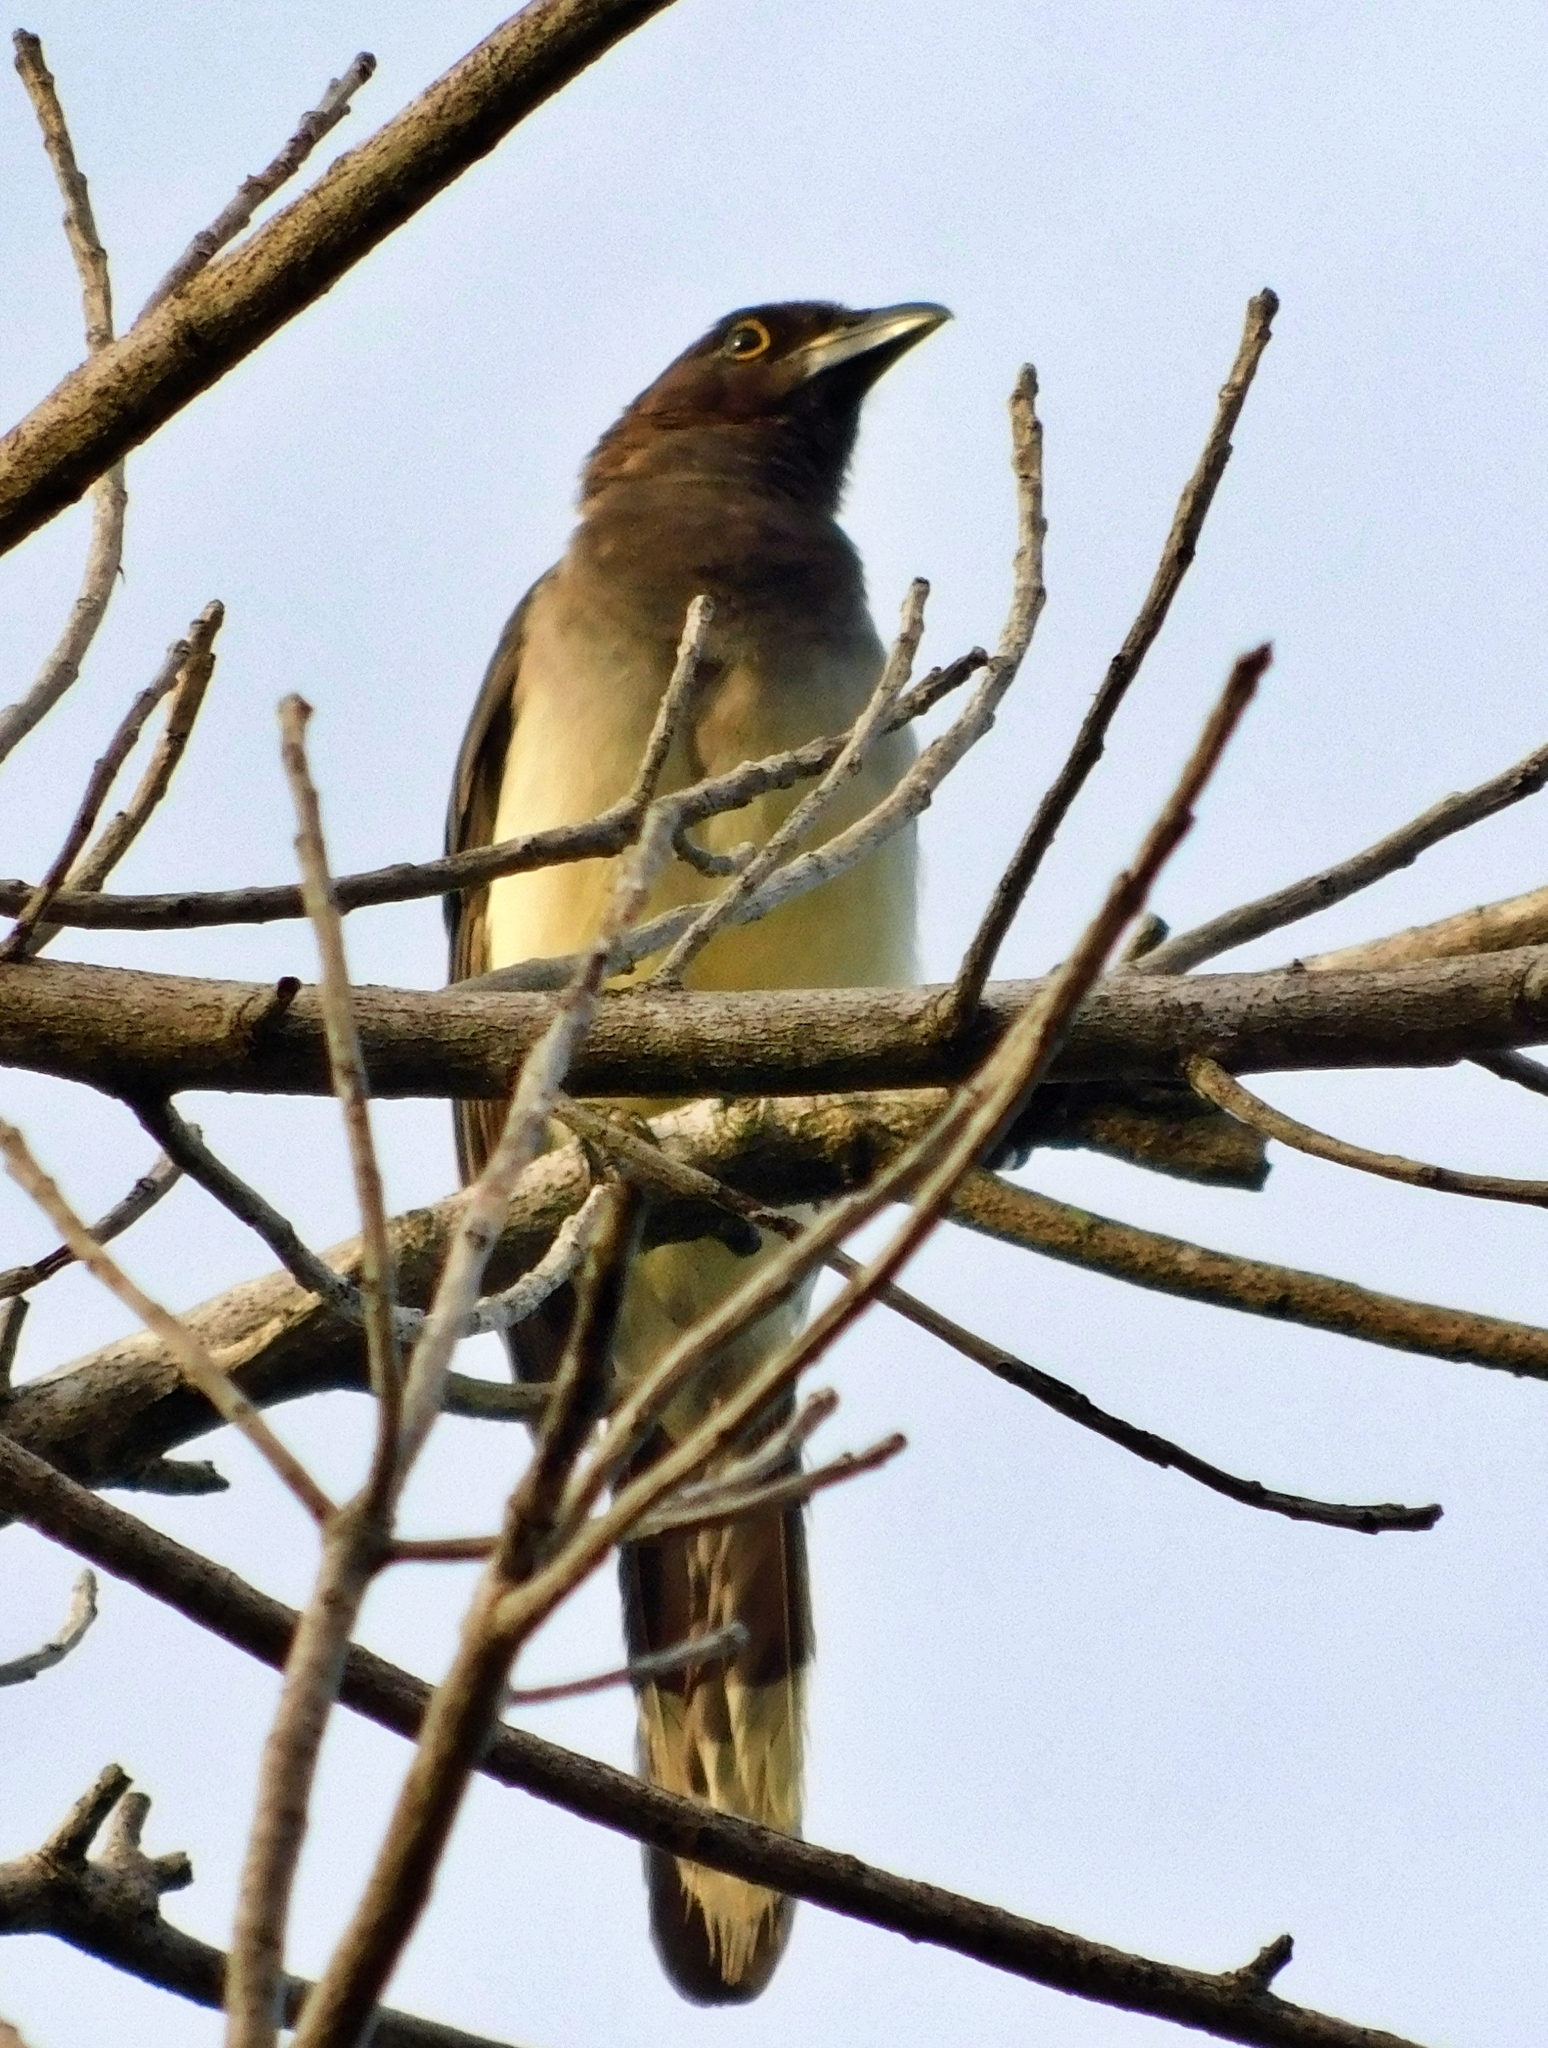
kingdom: Animalia
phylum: Chordata
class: Aves
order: Passeriformes
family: Corvidae
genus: Psilorhinus
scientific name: Psilorhinus morio
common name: Brown jay
